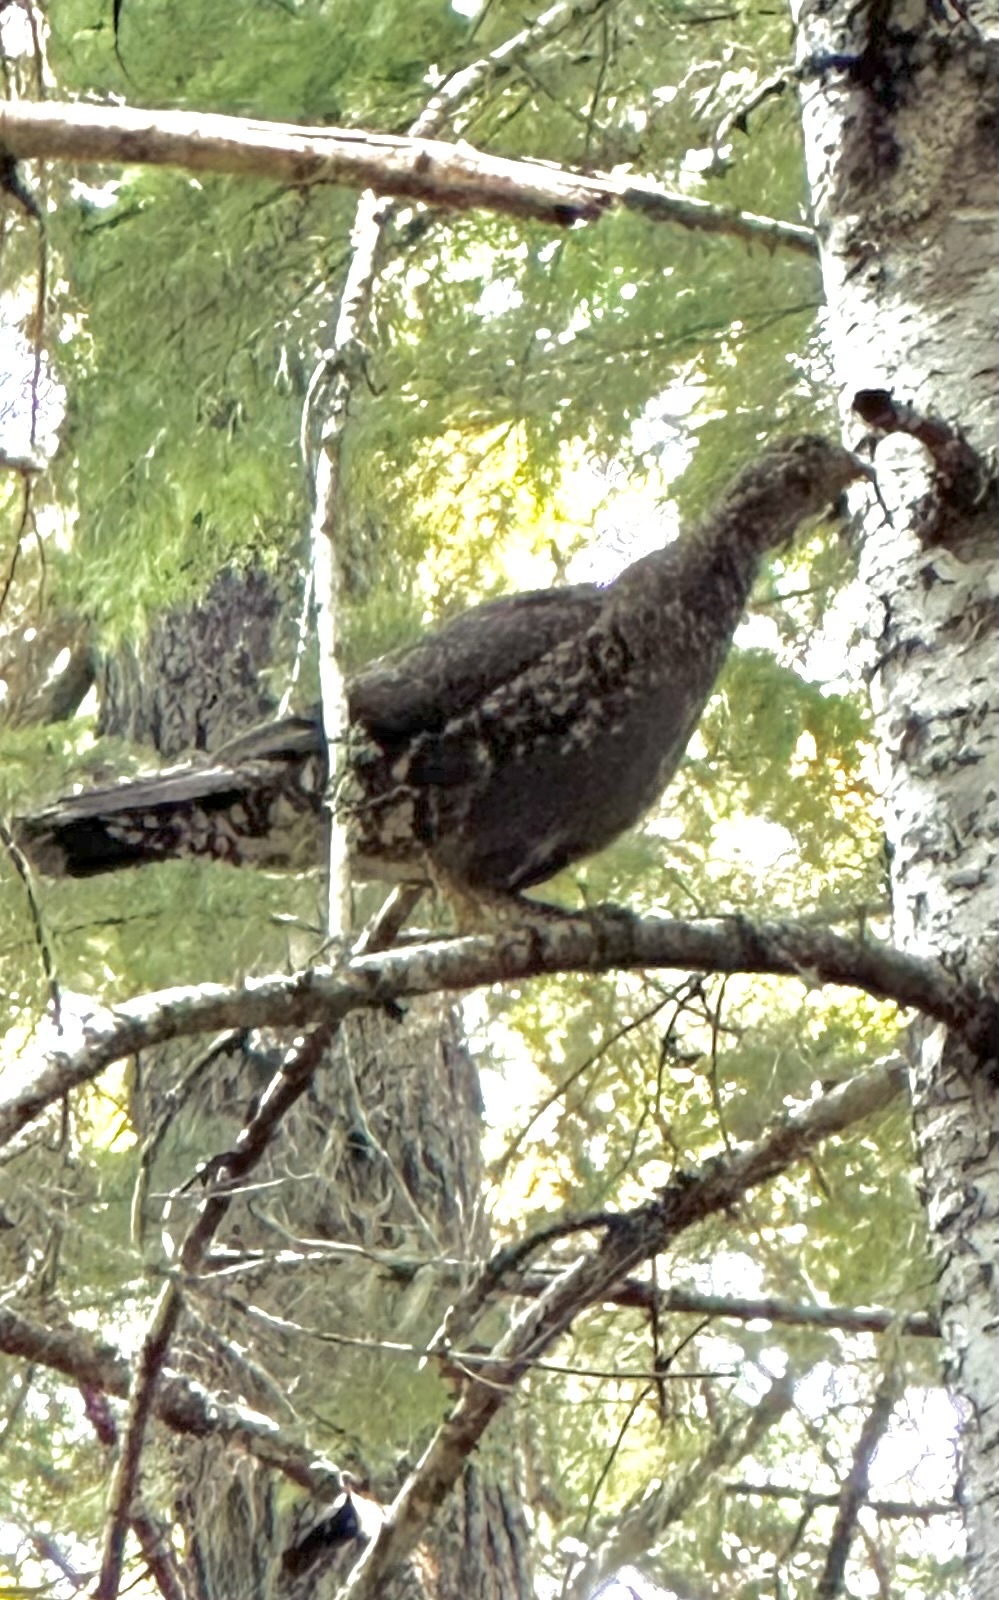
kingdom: Animalia
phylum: Chordata
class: Aves
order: Galliformes
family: Phasianidae
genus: Dendragapus
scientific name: Dendragapus fuliginosus
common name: Sooty grouse
